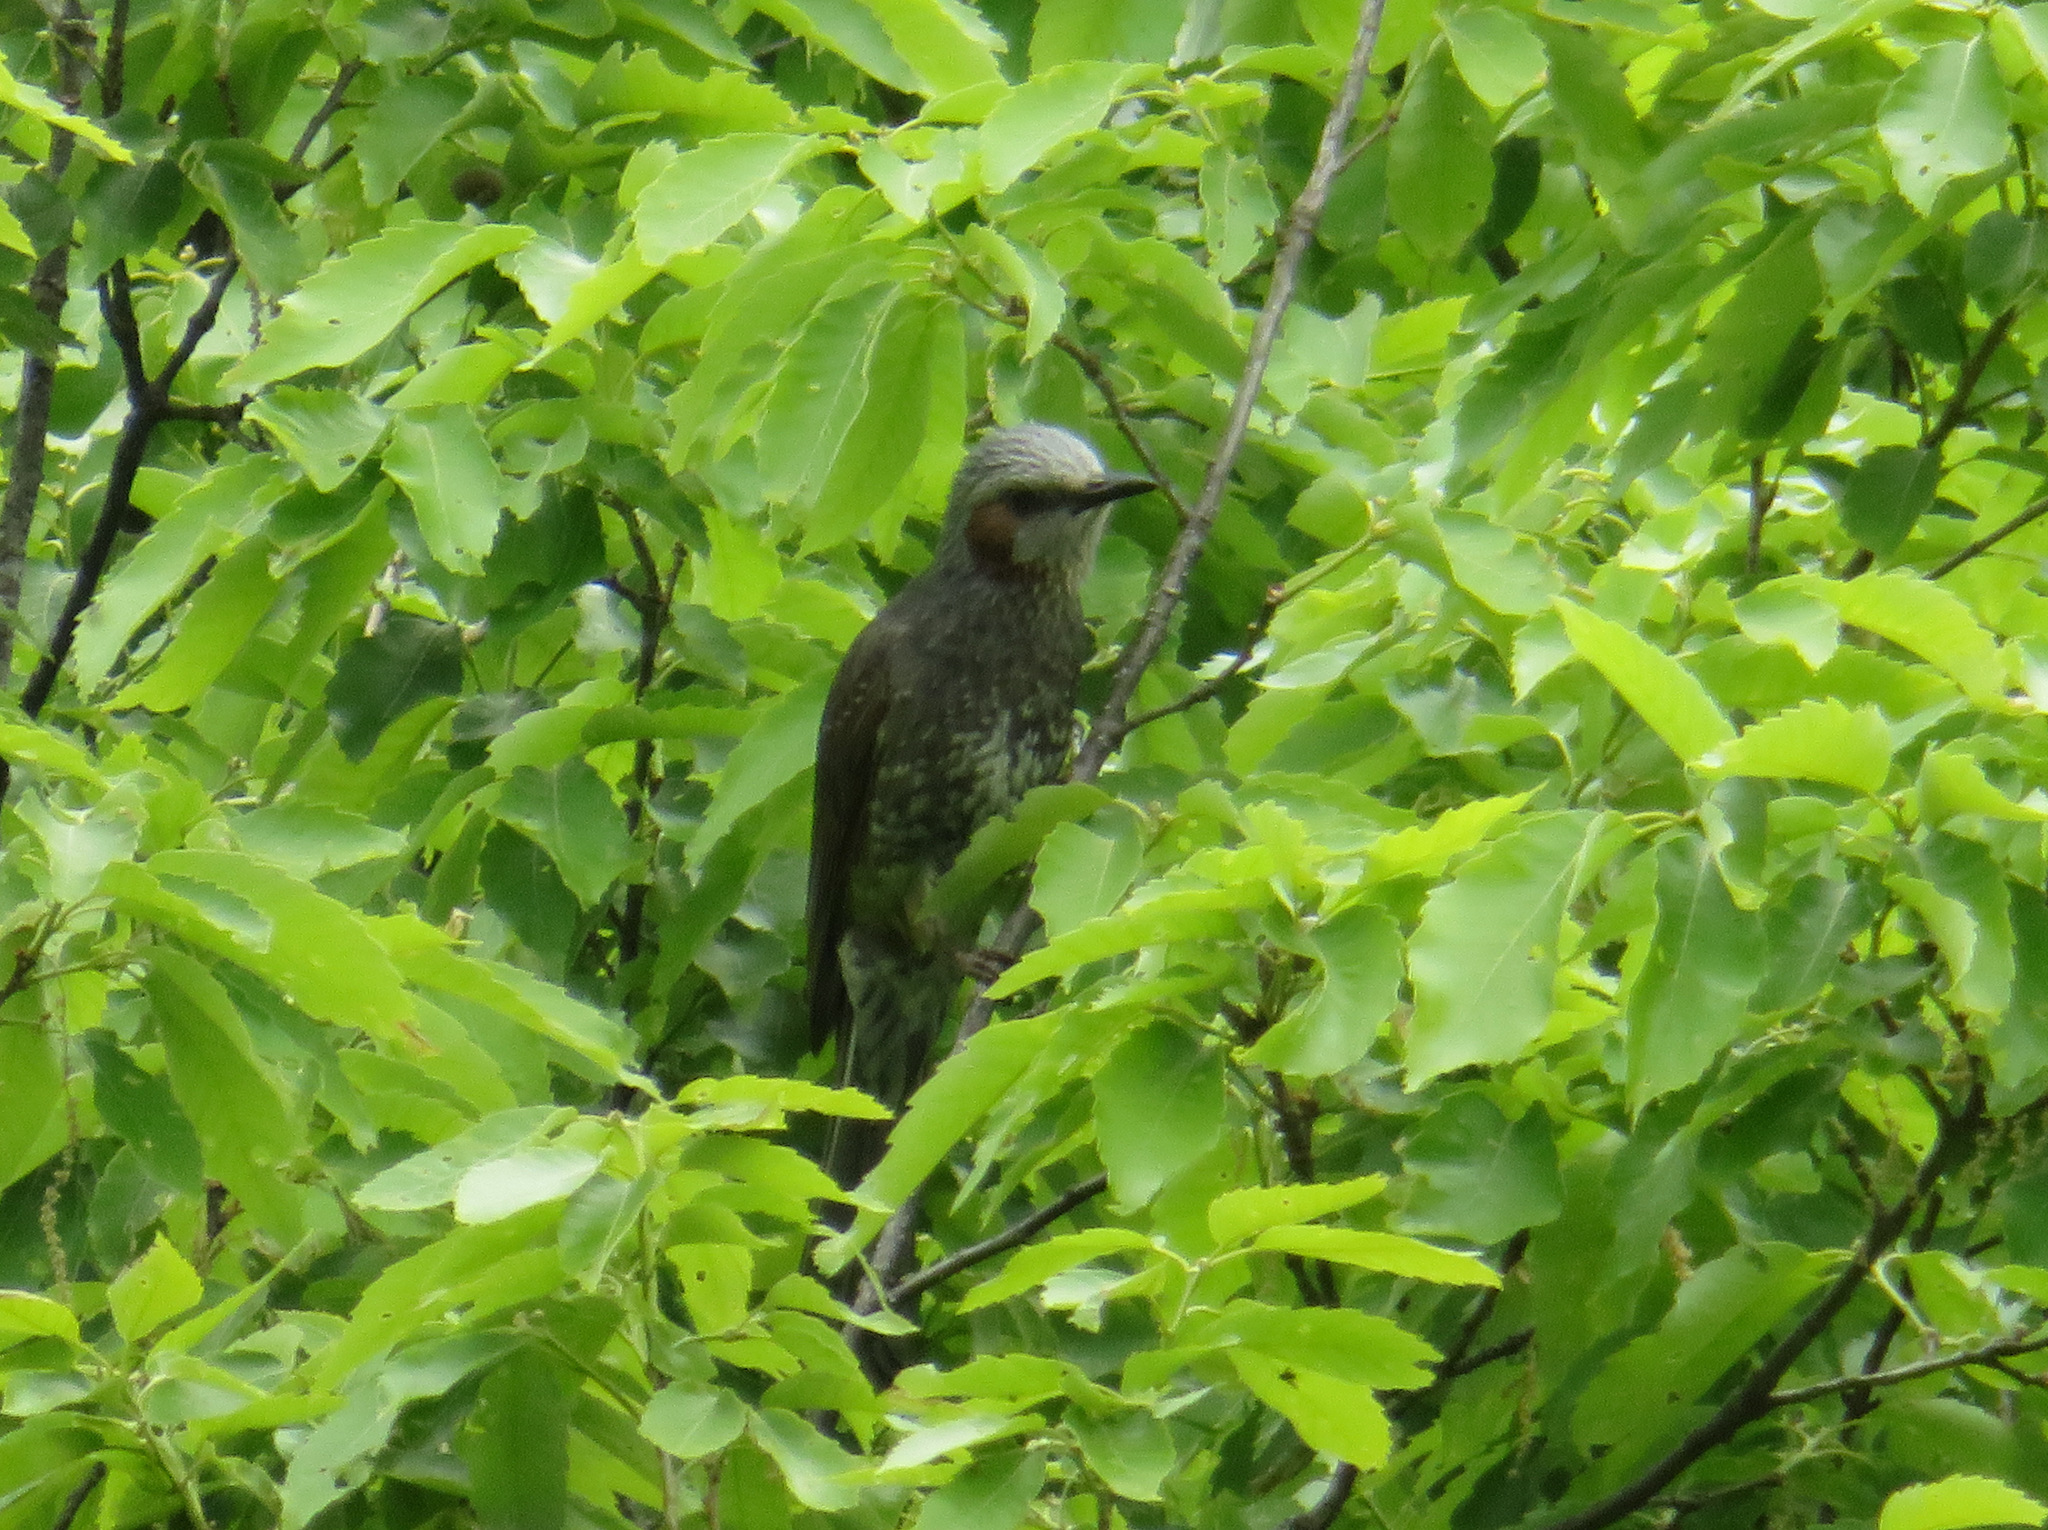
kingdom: Animalia
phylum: Chordata
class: Aves
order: Passeriformes
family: Pycnonotidae
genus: Hypsipetes
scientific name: Hypsipetes amaurotis
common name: Brown-eared bulbul
